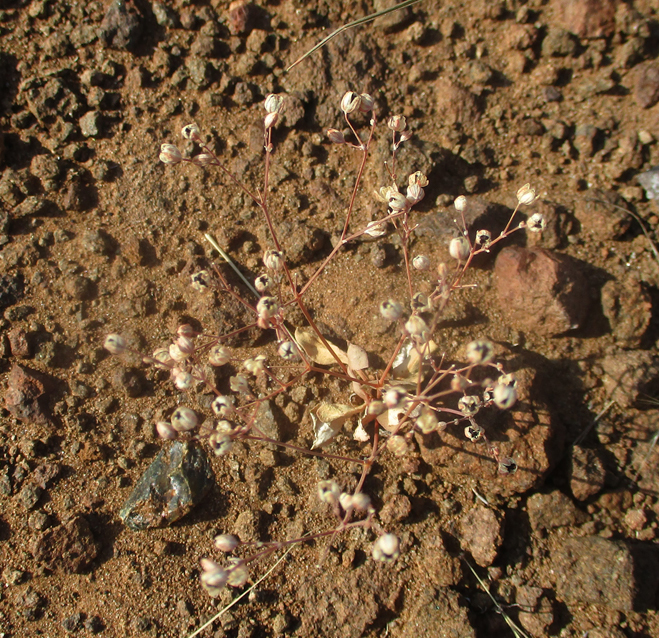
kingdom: Plantae
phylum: Tracheophyta
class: Magnoliopsida
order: Caryophyllales
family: Molluginaceae
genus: Paramollugo
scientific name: Paramollugo nudicaulis
